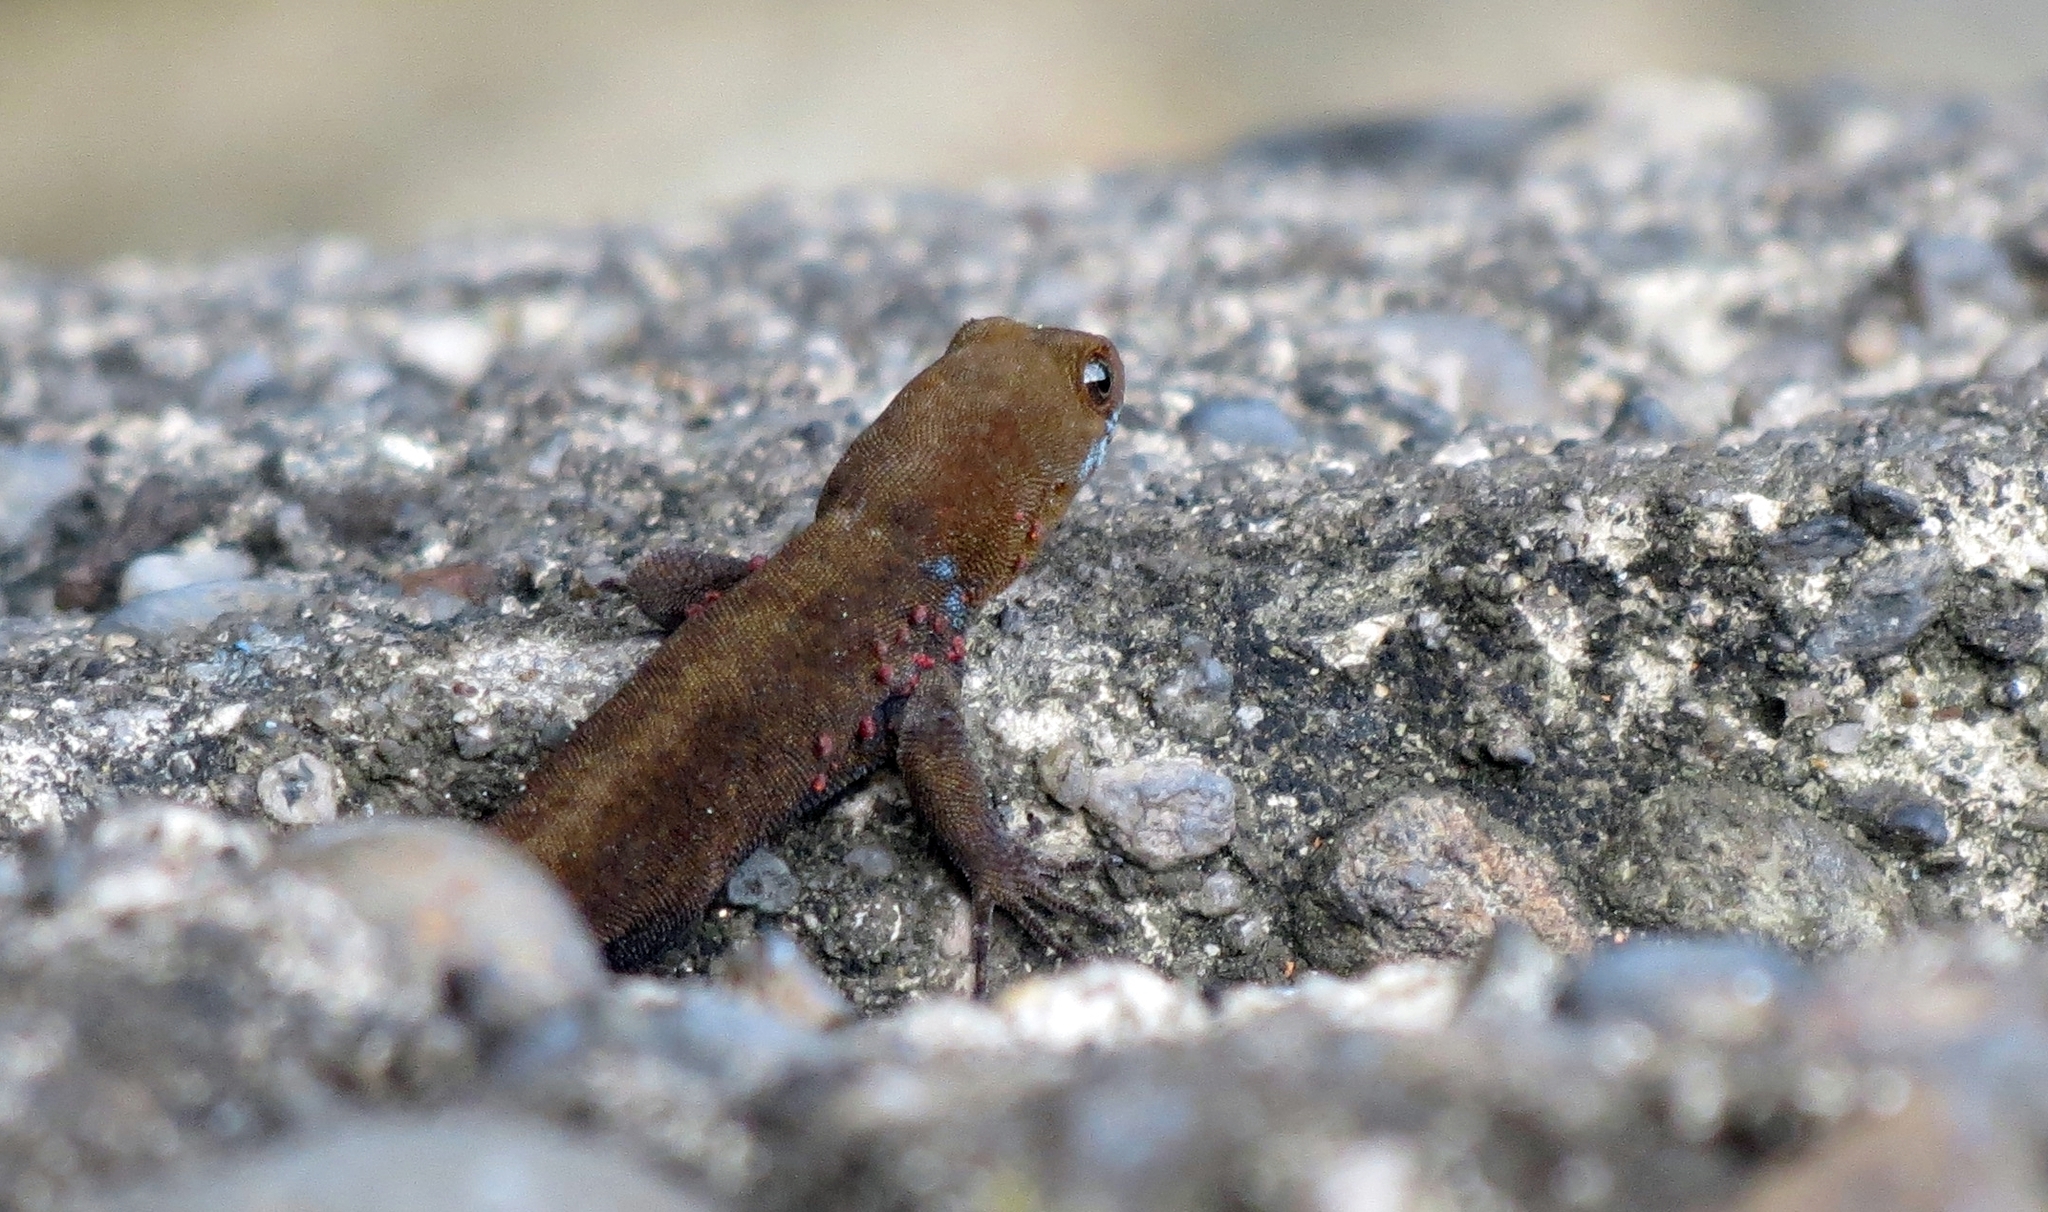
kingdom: Animalia
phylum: Chordata
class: Squamata
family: Sphaerodactylidae
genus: Gonatodes
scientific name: Gonatodes albogularis
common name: Yellow-headed gecko
